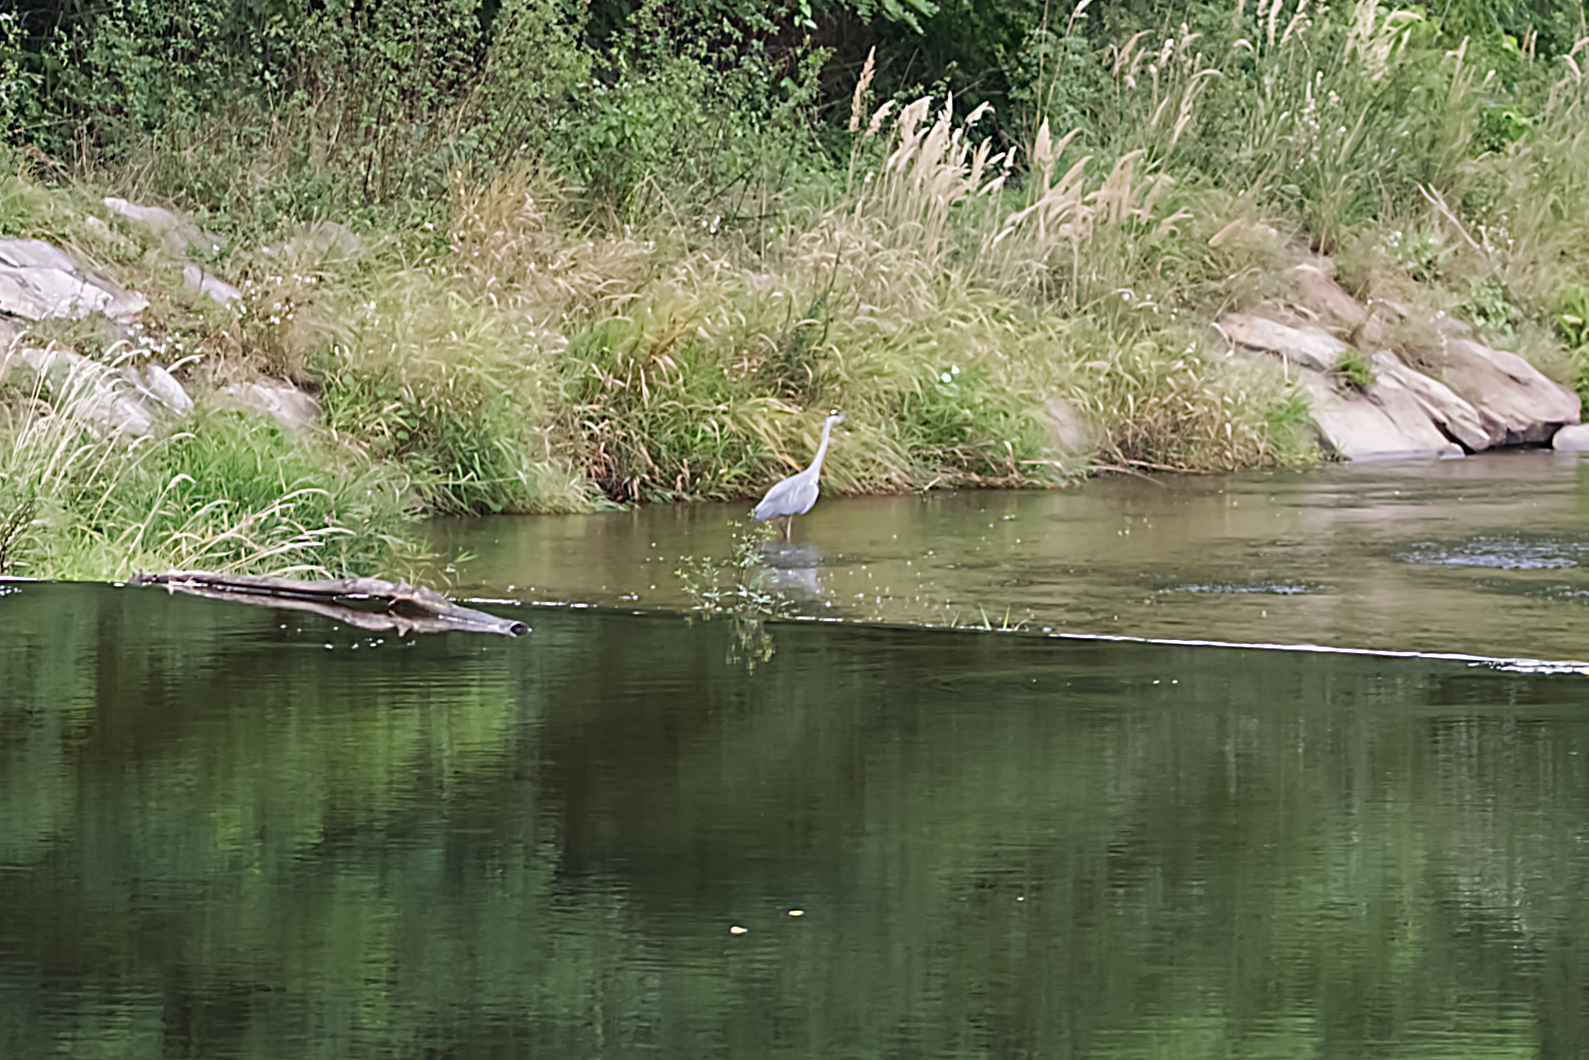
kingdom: Animalia
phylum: Chordata
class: Aves
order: Pelecaniformes
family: Ardeidae
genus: Ardea
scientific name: Ardea cinerea
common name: Grey heron
